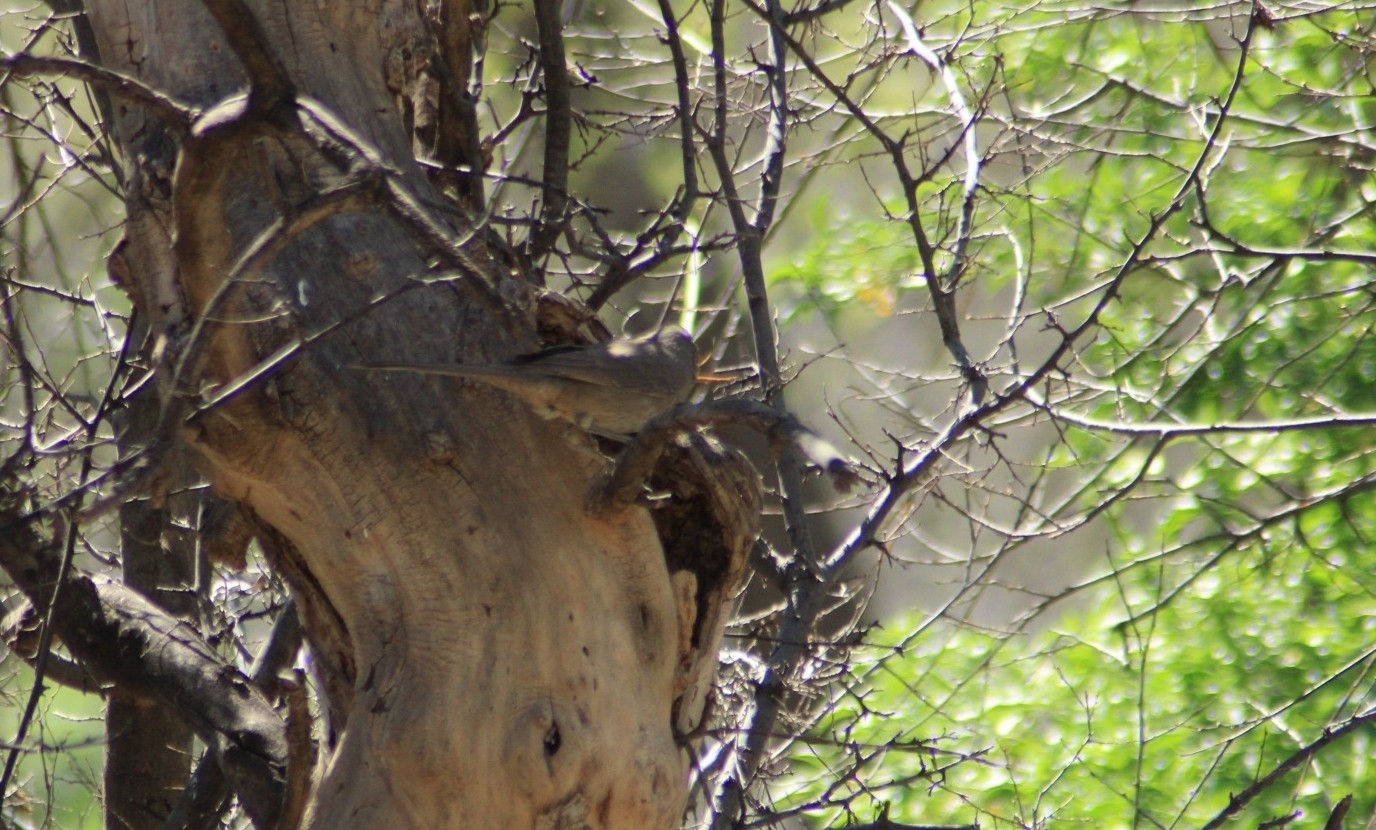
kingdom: Animalia
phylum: Chordata
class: Aves
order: Passeriformes
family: Mimidae
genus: Toxostoma
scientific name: Toxostoma curvirostre
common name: Curve-billed thrasher
